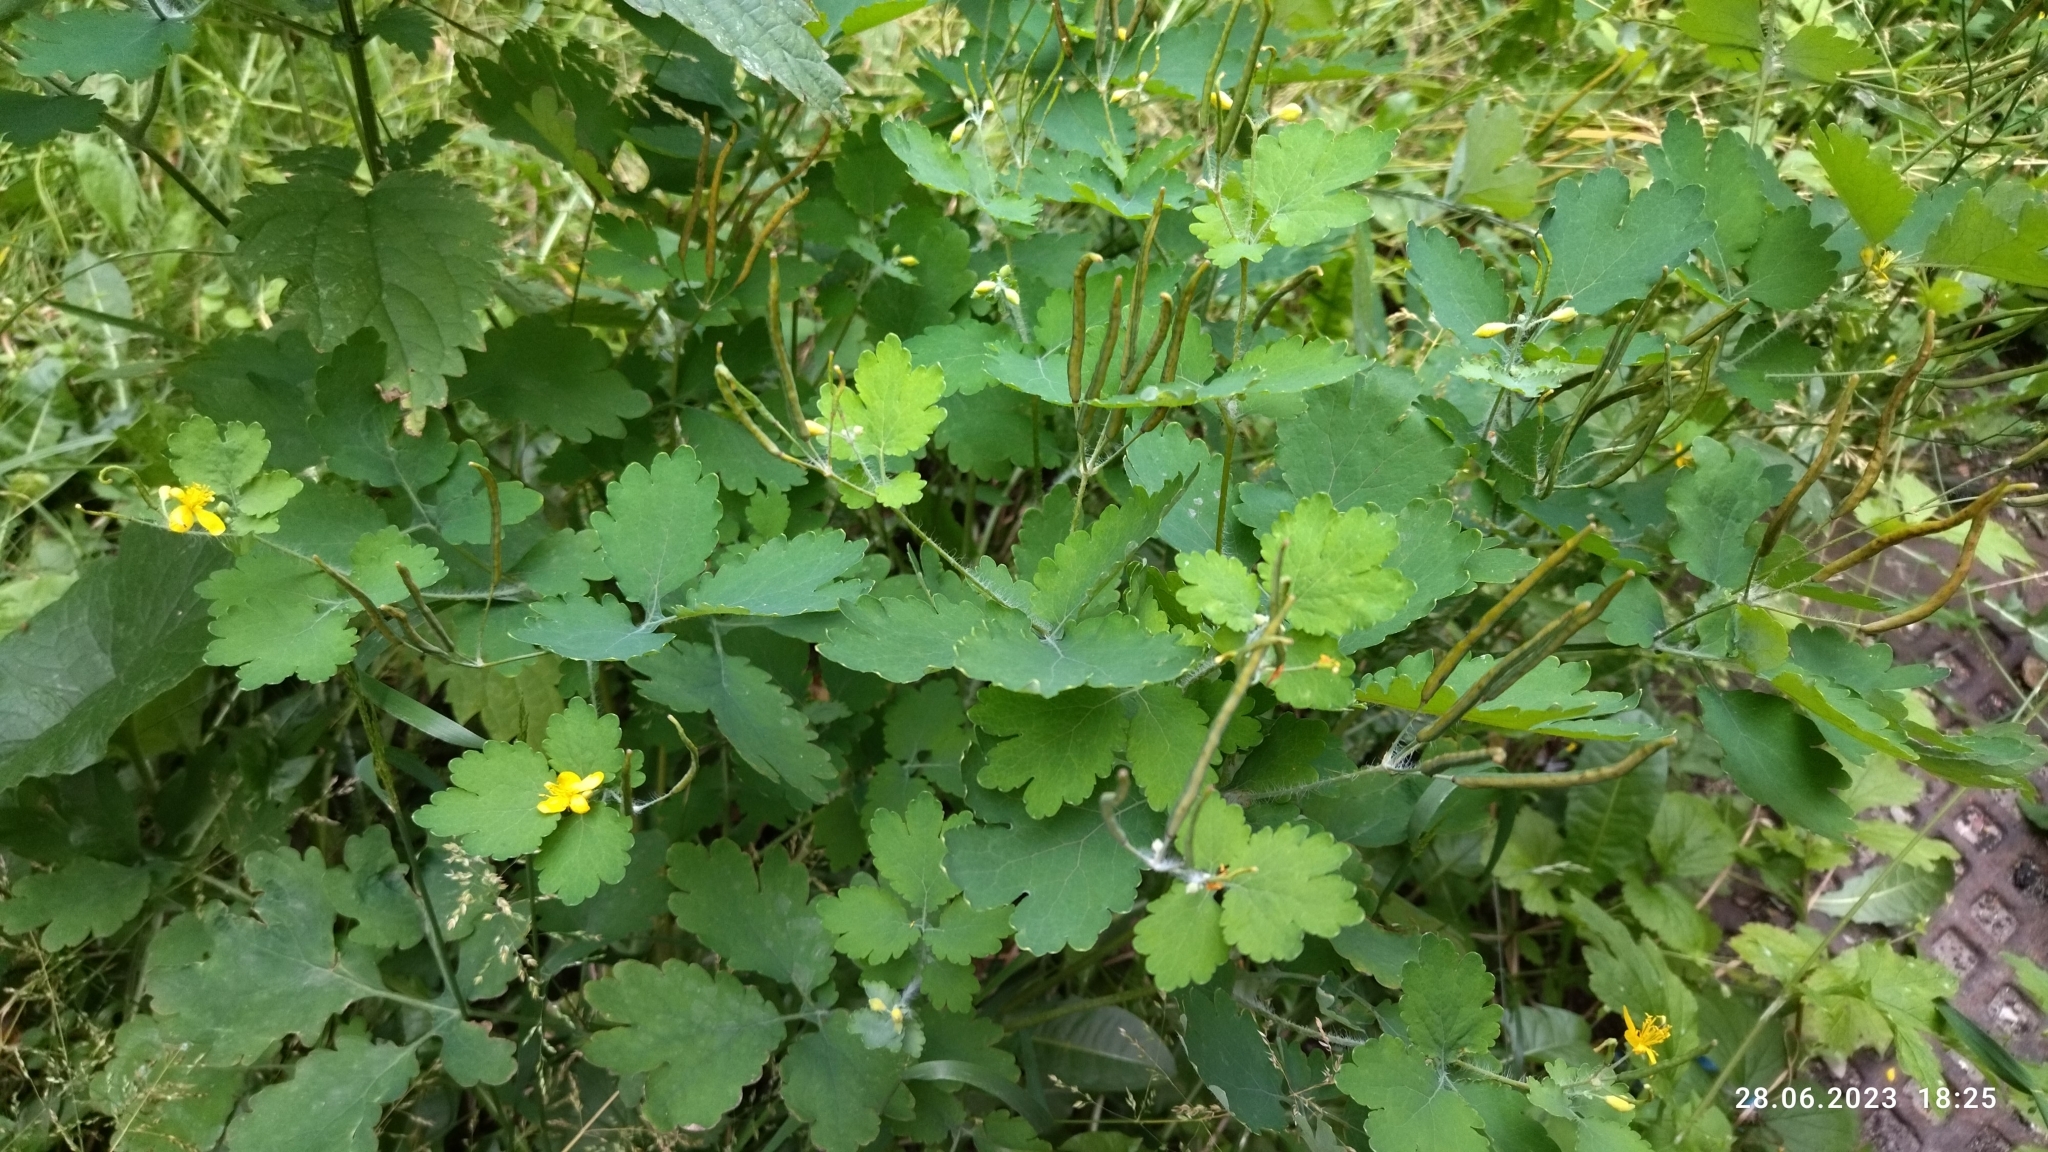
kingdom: Plantae
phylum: Tracheophyta
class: Magnoliopsida
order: Ranunculales
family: Papaveraceae
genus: Chelidonium
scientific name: Chelidonium majus
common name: Greater celandine
